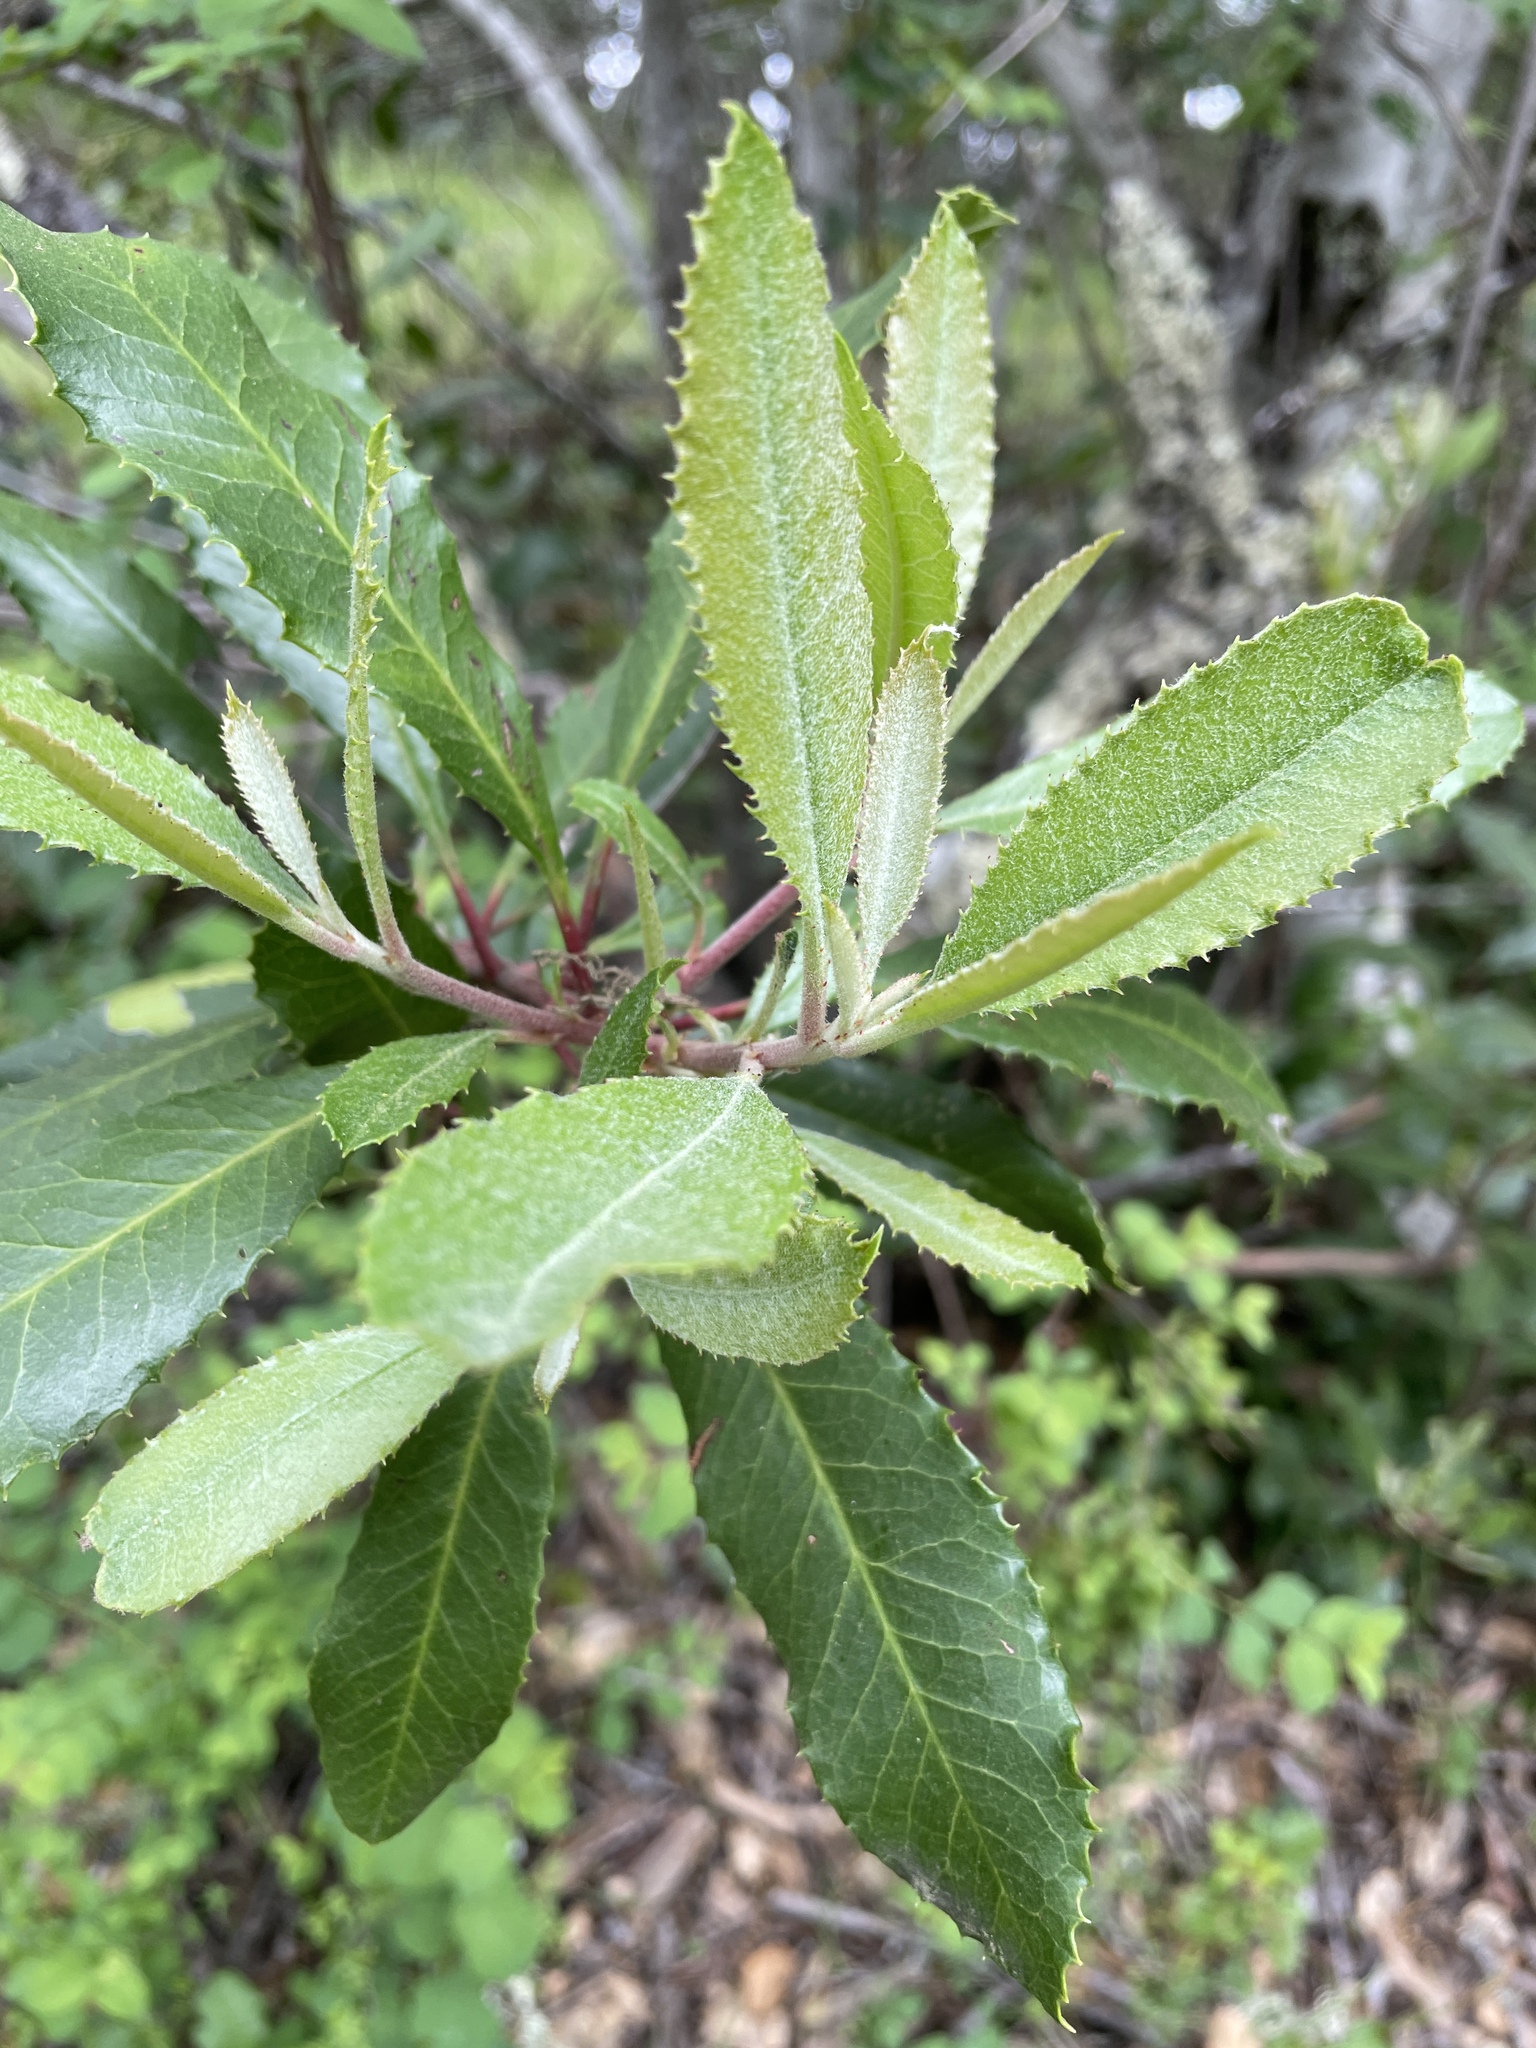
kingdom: Plantae
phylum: Tracheophyta
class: Magnoliopsida
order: Rosales
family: Rosaceae
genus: Heteromeles
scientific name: Heteromeles arbutifolia
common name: California-holly
